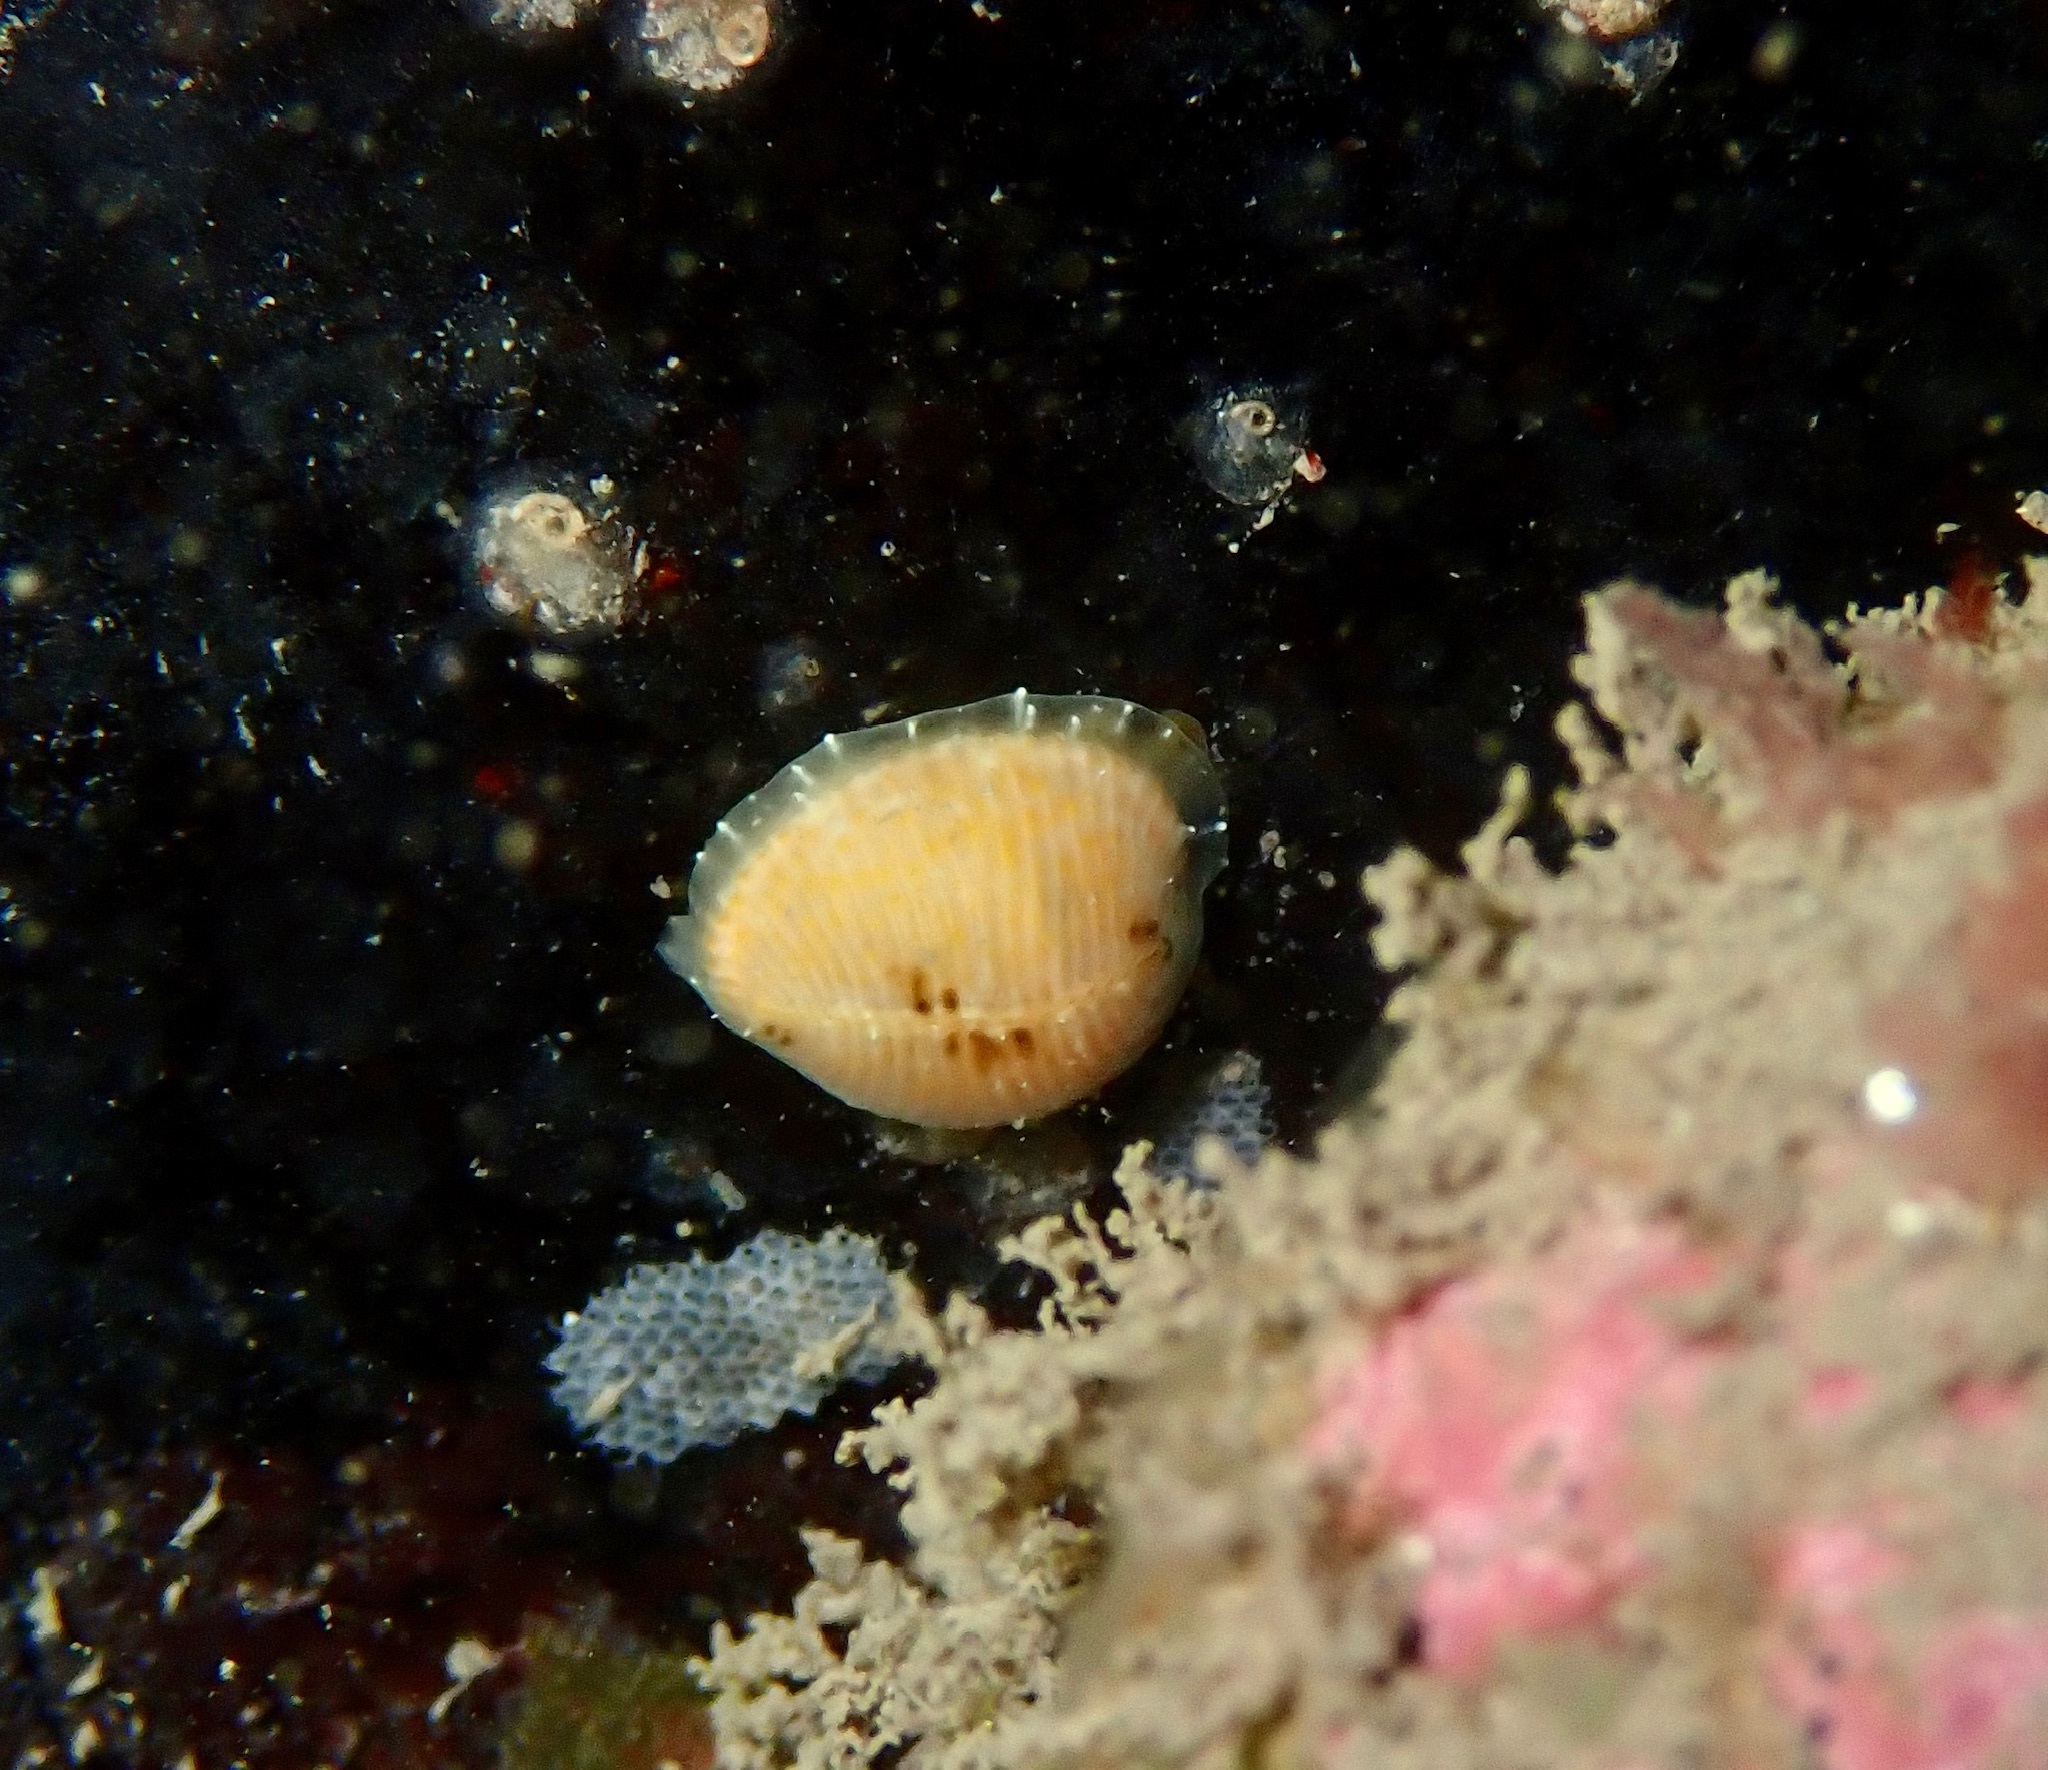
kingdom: Animalia
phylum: Mollusca
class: Gastropoda
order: Littorinimorpha
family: Triviidae
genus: Trivia
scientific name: Trivia arctica
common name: Arctic cowrie
